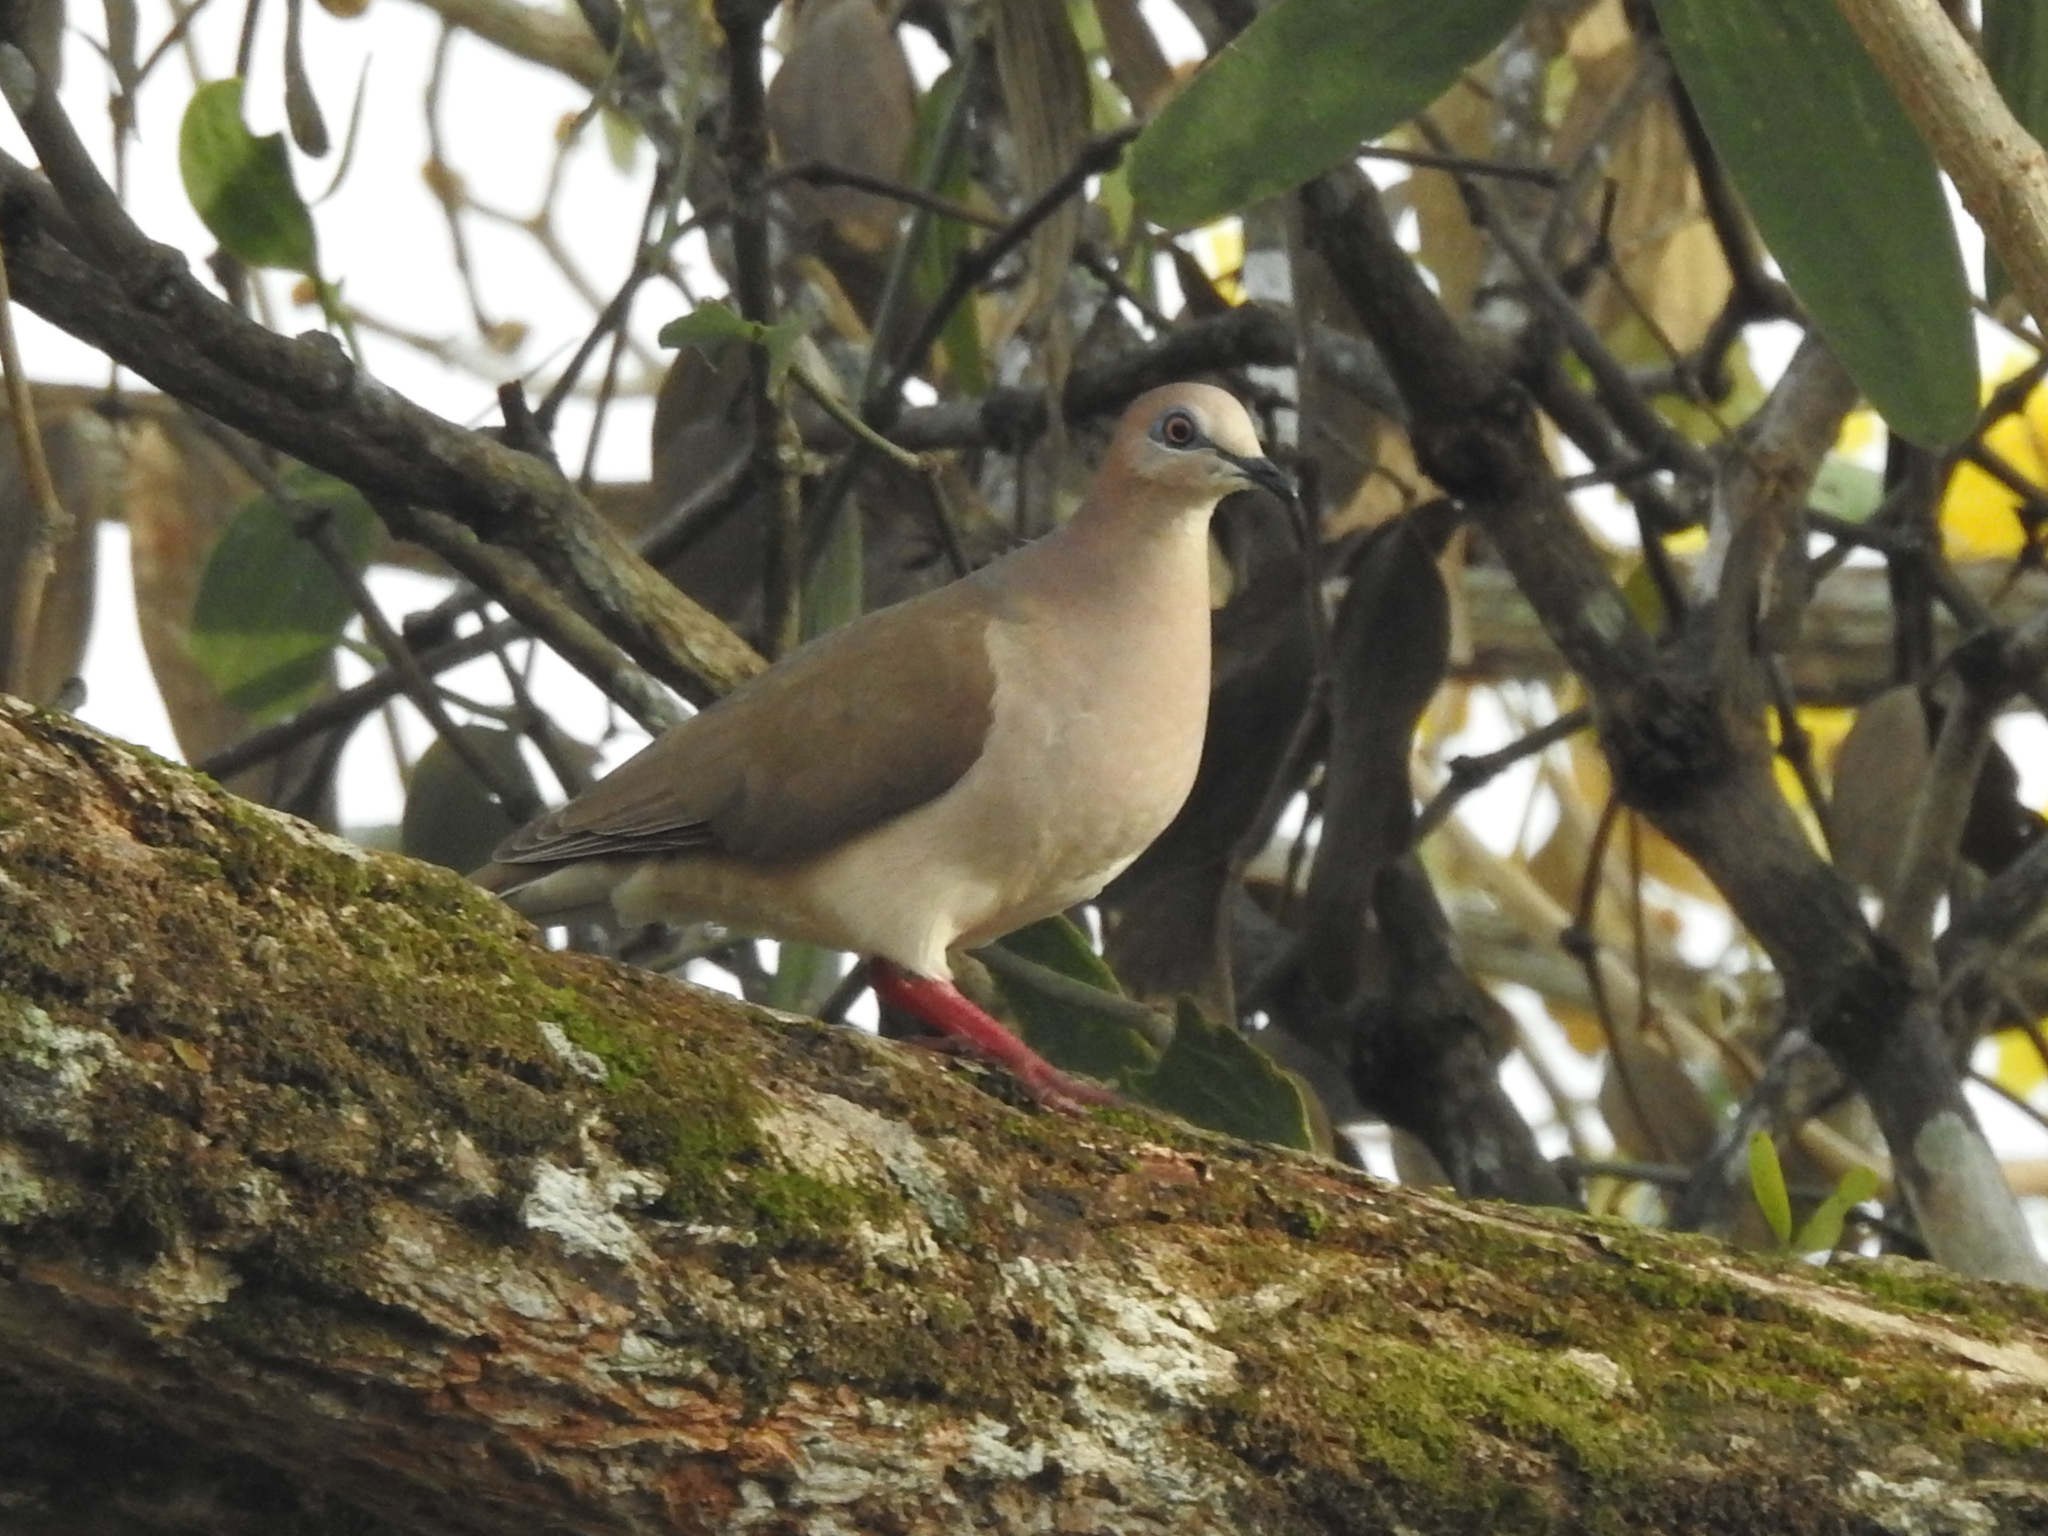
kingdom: Animalia
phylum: Chordata
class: Aves
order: Columbiformes
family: Columbidae
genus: Leptotila
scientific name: Leptotila verreauxi
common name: White-tipped dove
